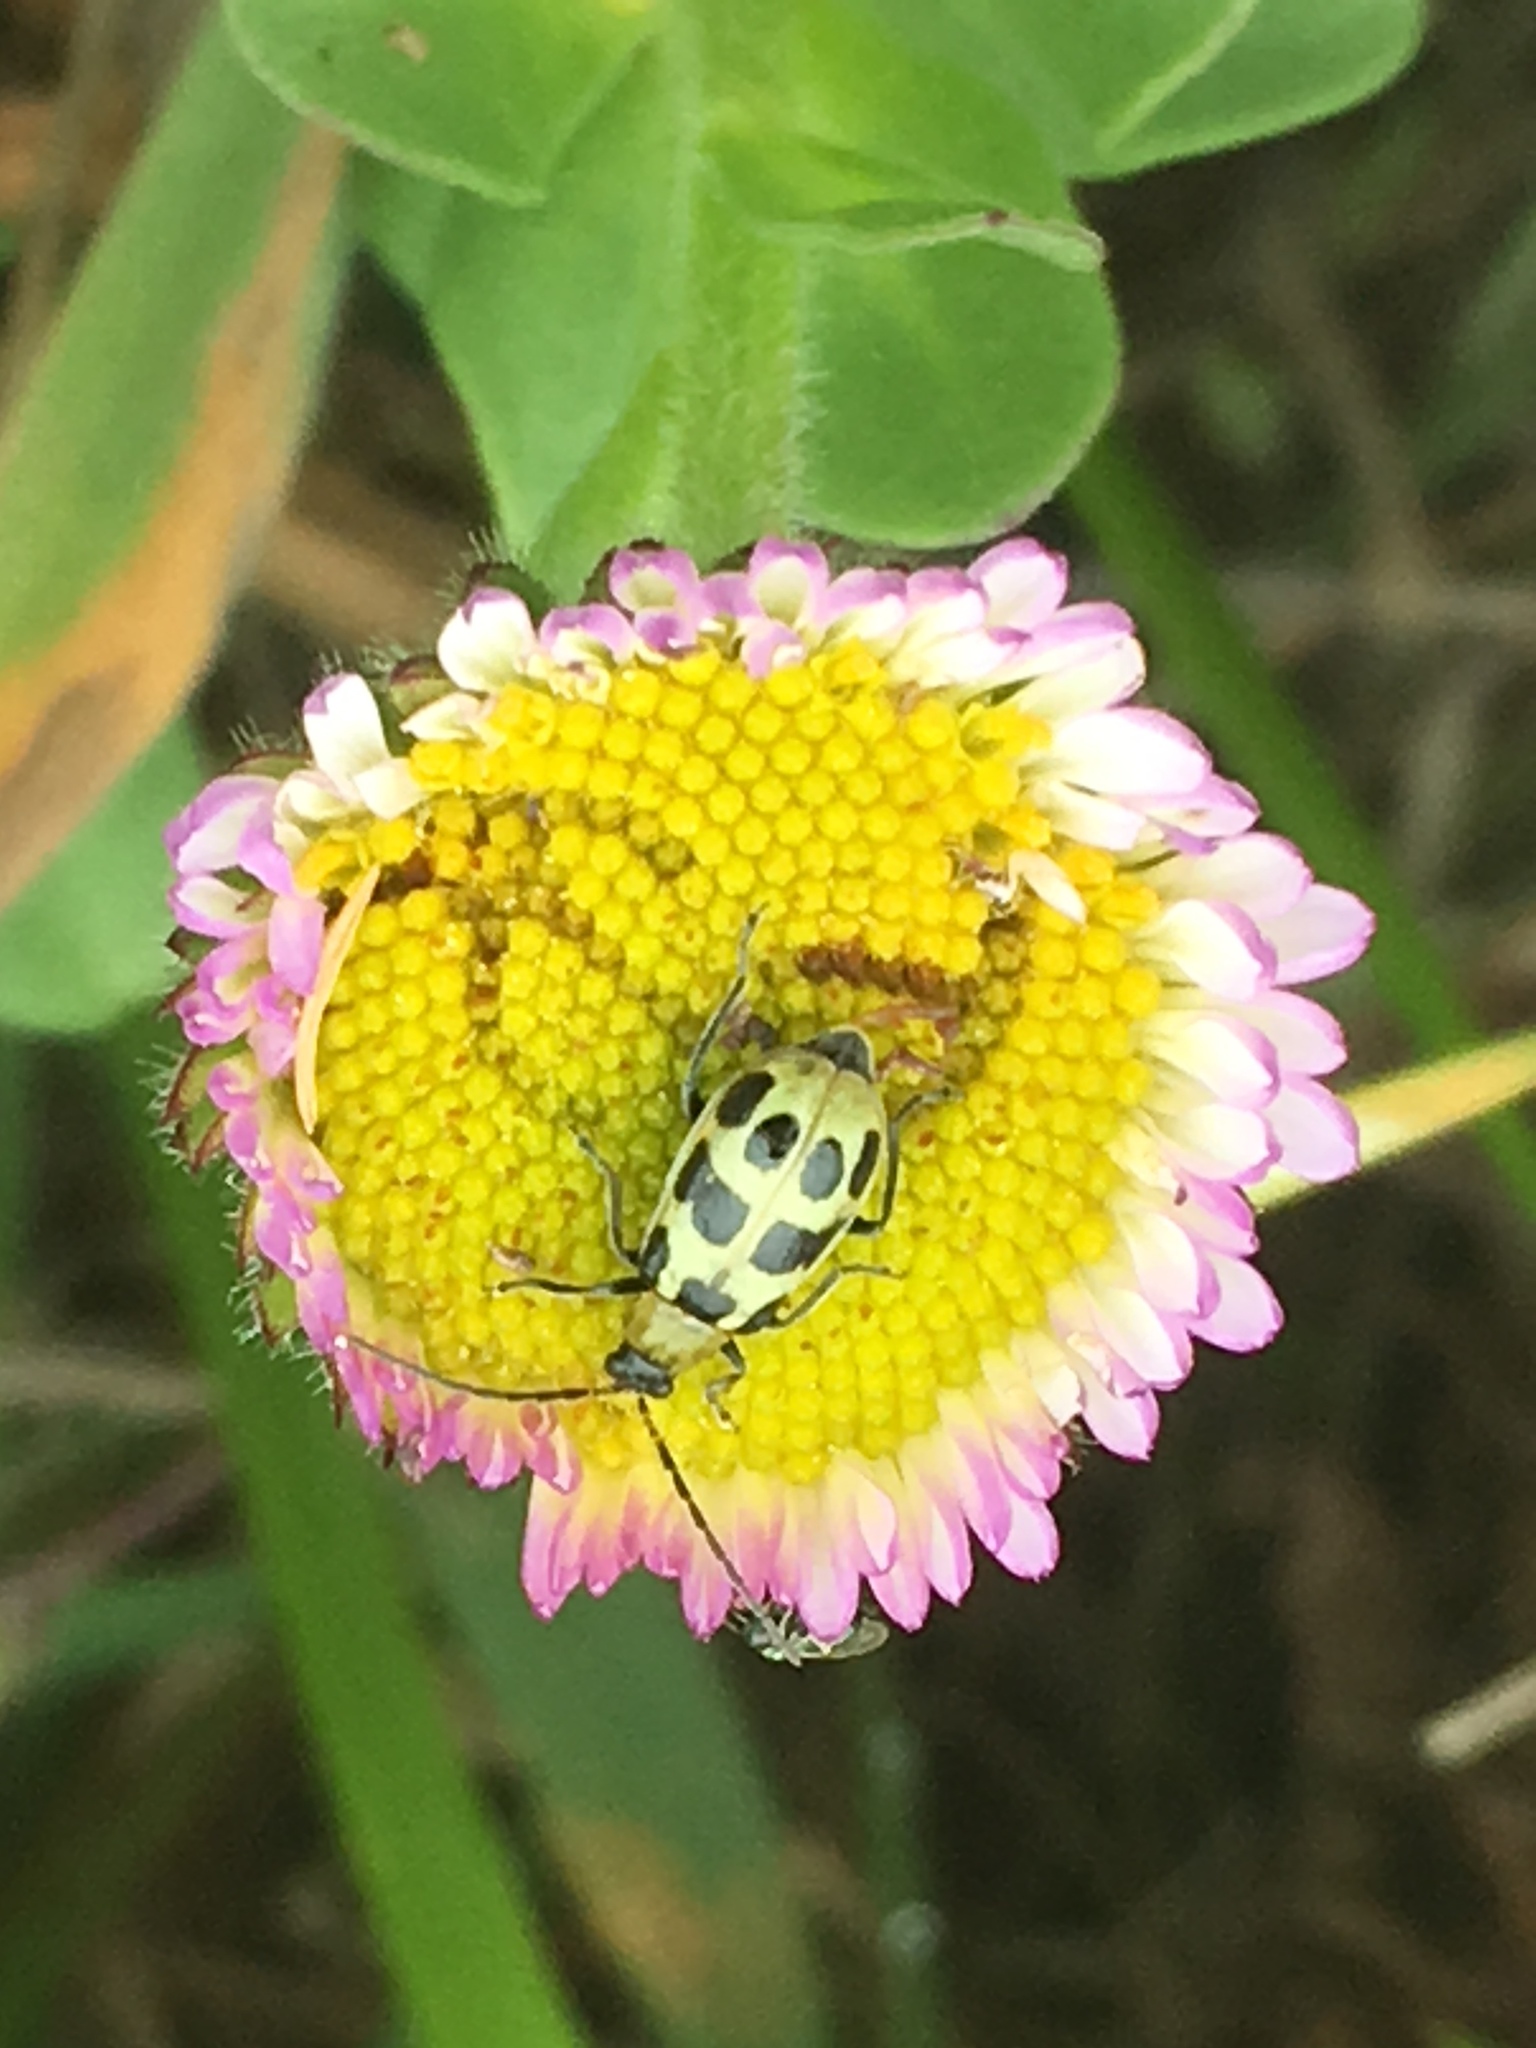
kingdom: Animalia
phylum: Arthropoda
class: Insecta
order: Coleoptera
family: Chrysomelidae
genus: Diabrotica
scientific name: Diabrotica undecimpunctata
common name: Spotted cucumber beetle
